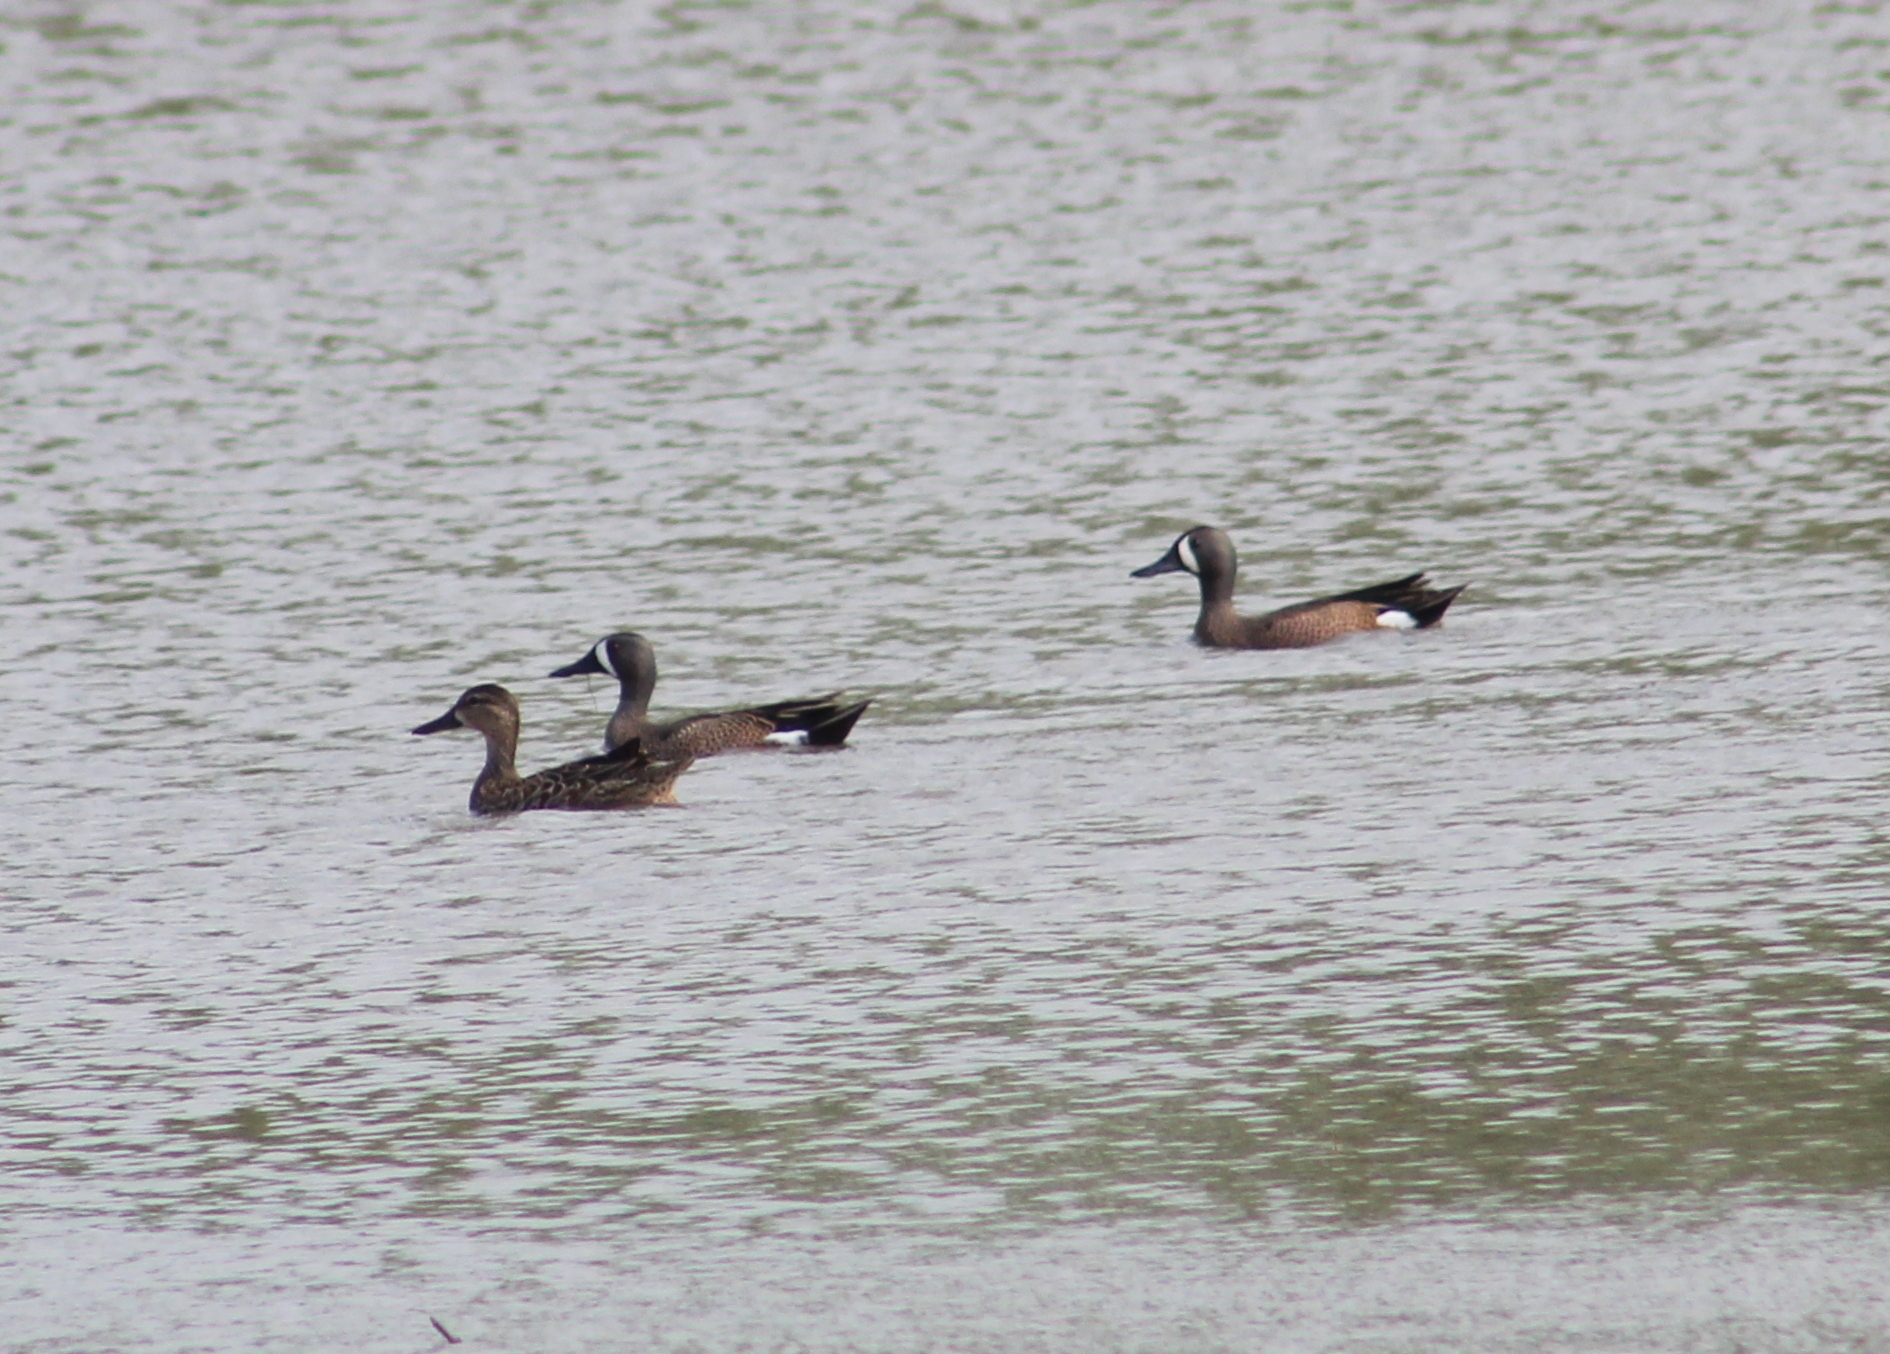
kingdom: Animalia
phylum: Chordata
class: Aves
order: Anseriformes
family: Anatidae
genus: Spatula
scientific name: Spatula discors
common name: Blue-winged teal
